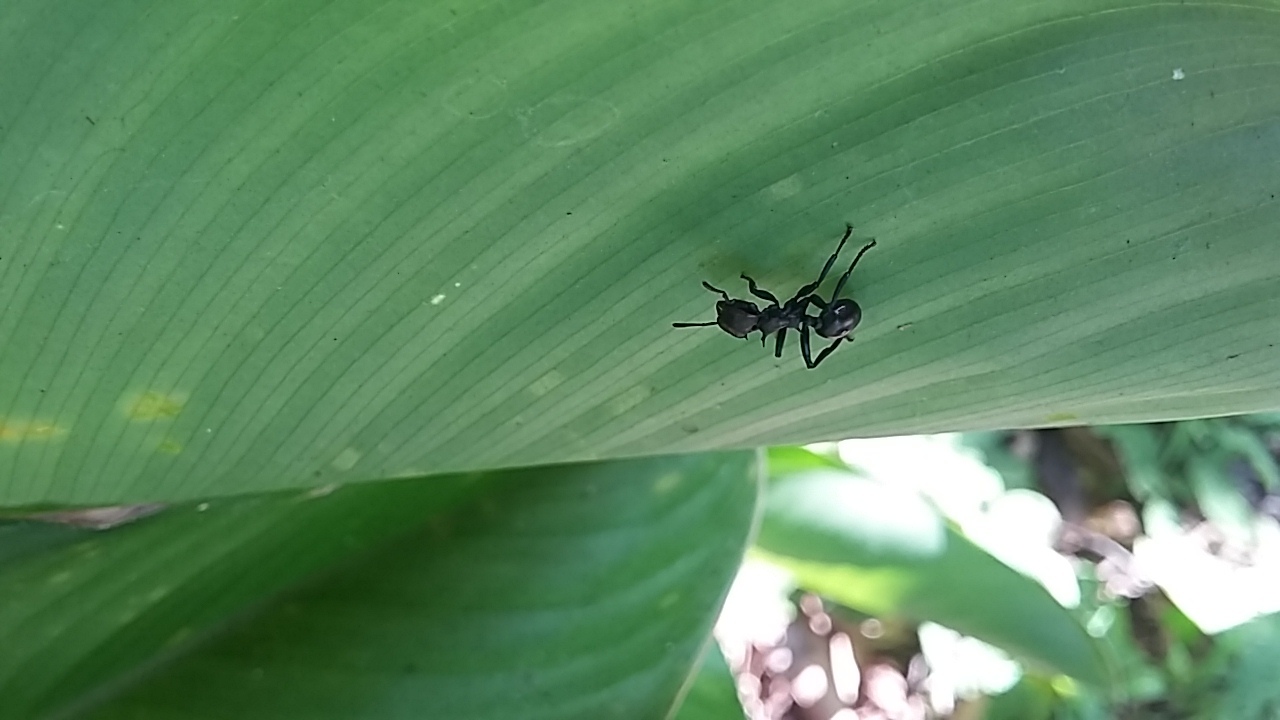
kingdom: Animalia
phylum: Arthropoda
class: Insecta
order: Hymenoptera
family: Formicidae
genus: Cephalotes
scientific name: Cephalotes atratus
